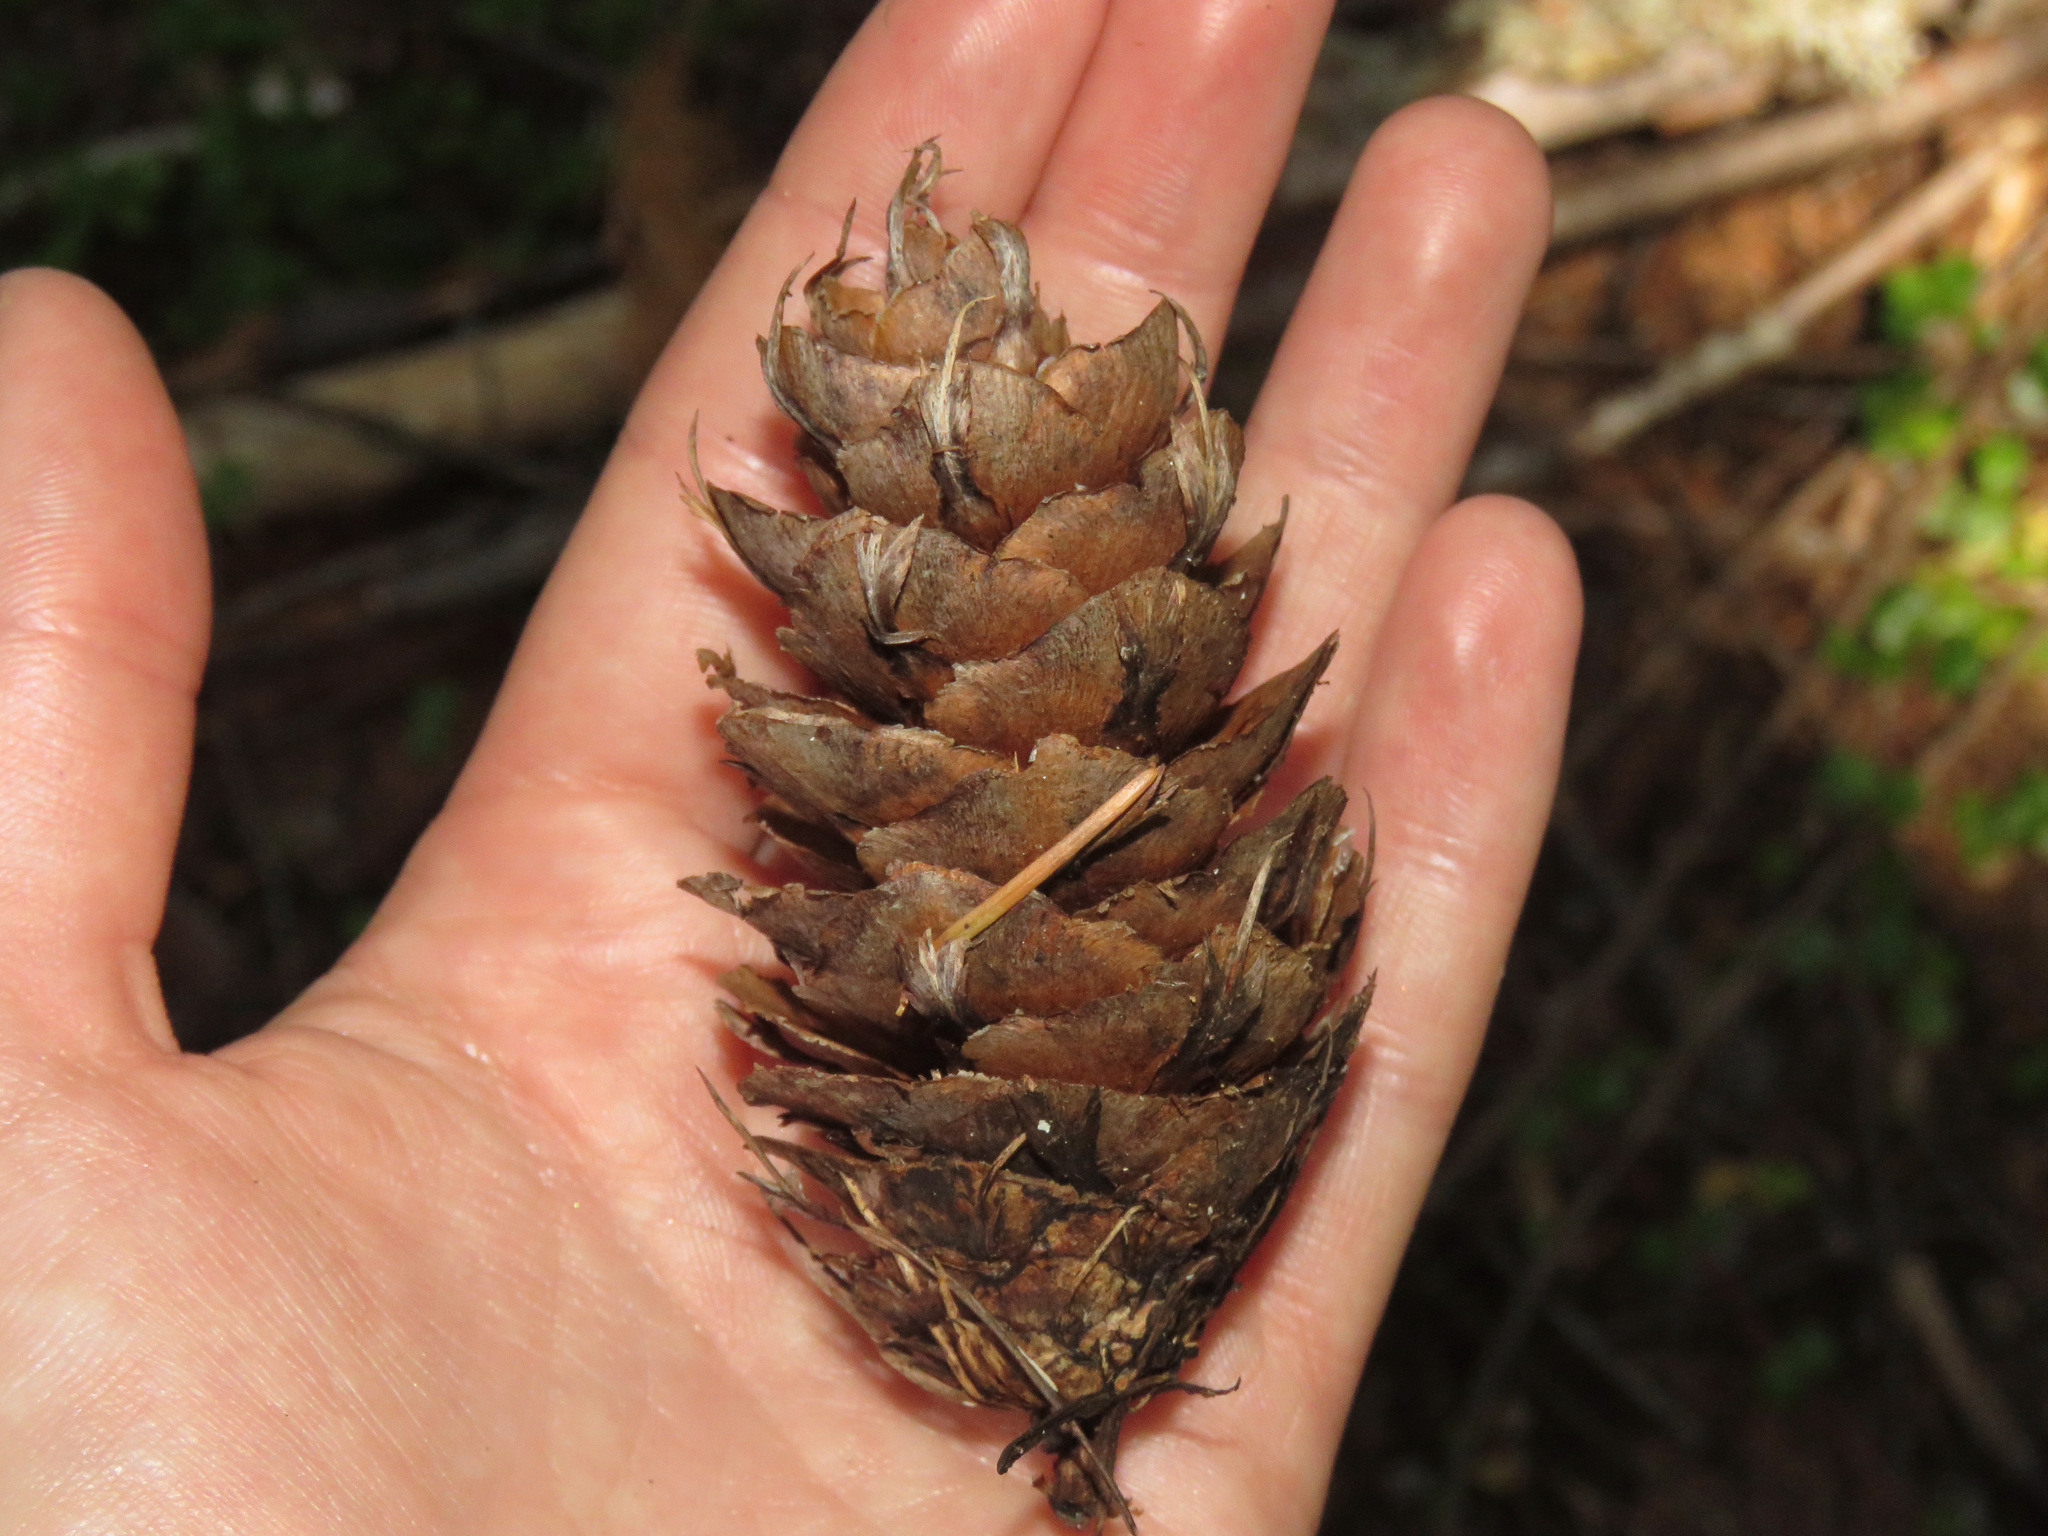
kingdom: Plantae
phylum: Tracheophyta
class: Pinopsida
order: Pinales
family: Pinaceae
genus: Pseudotsuga
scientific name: Pseudotsuga menziesii
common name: Douglas fir
